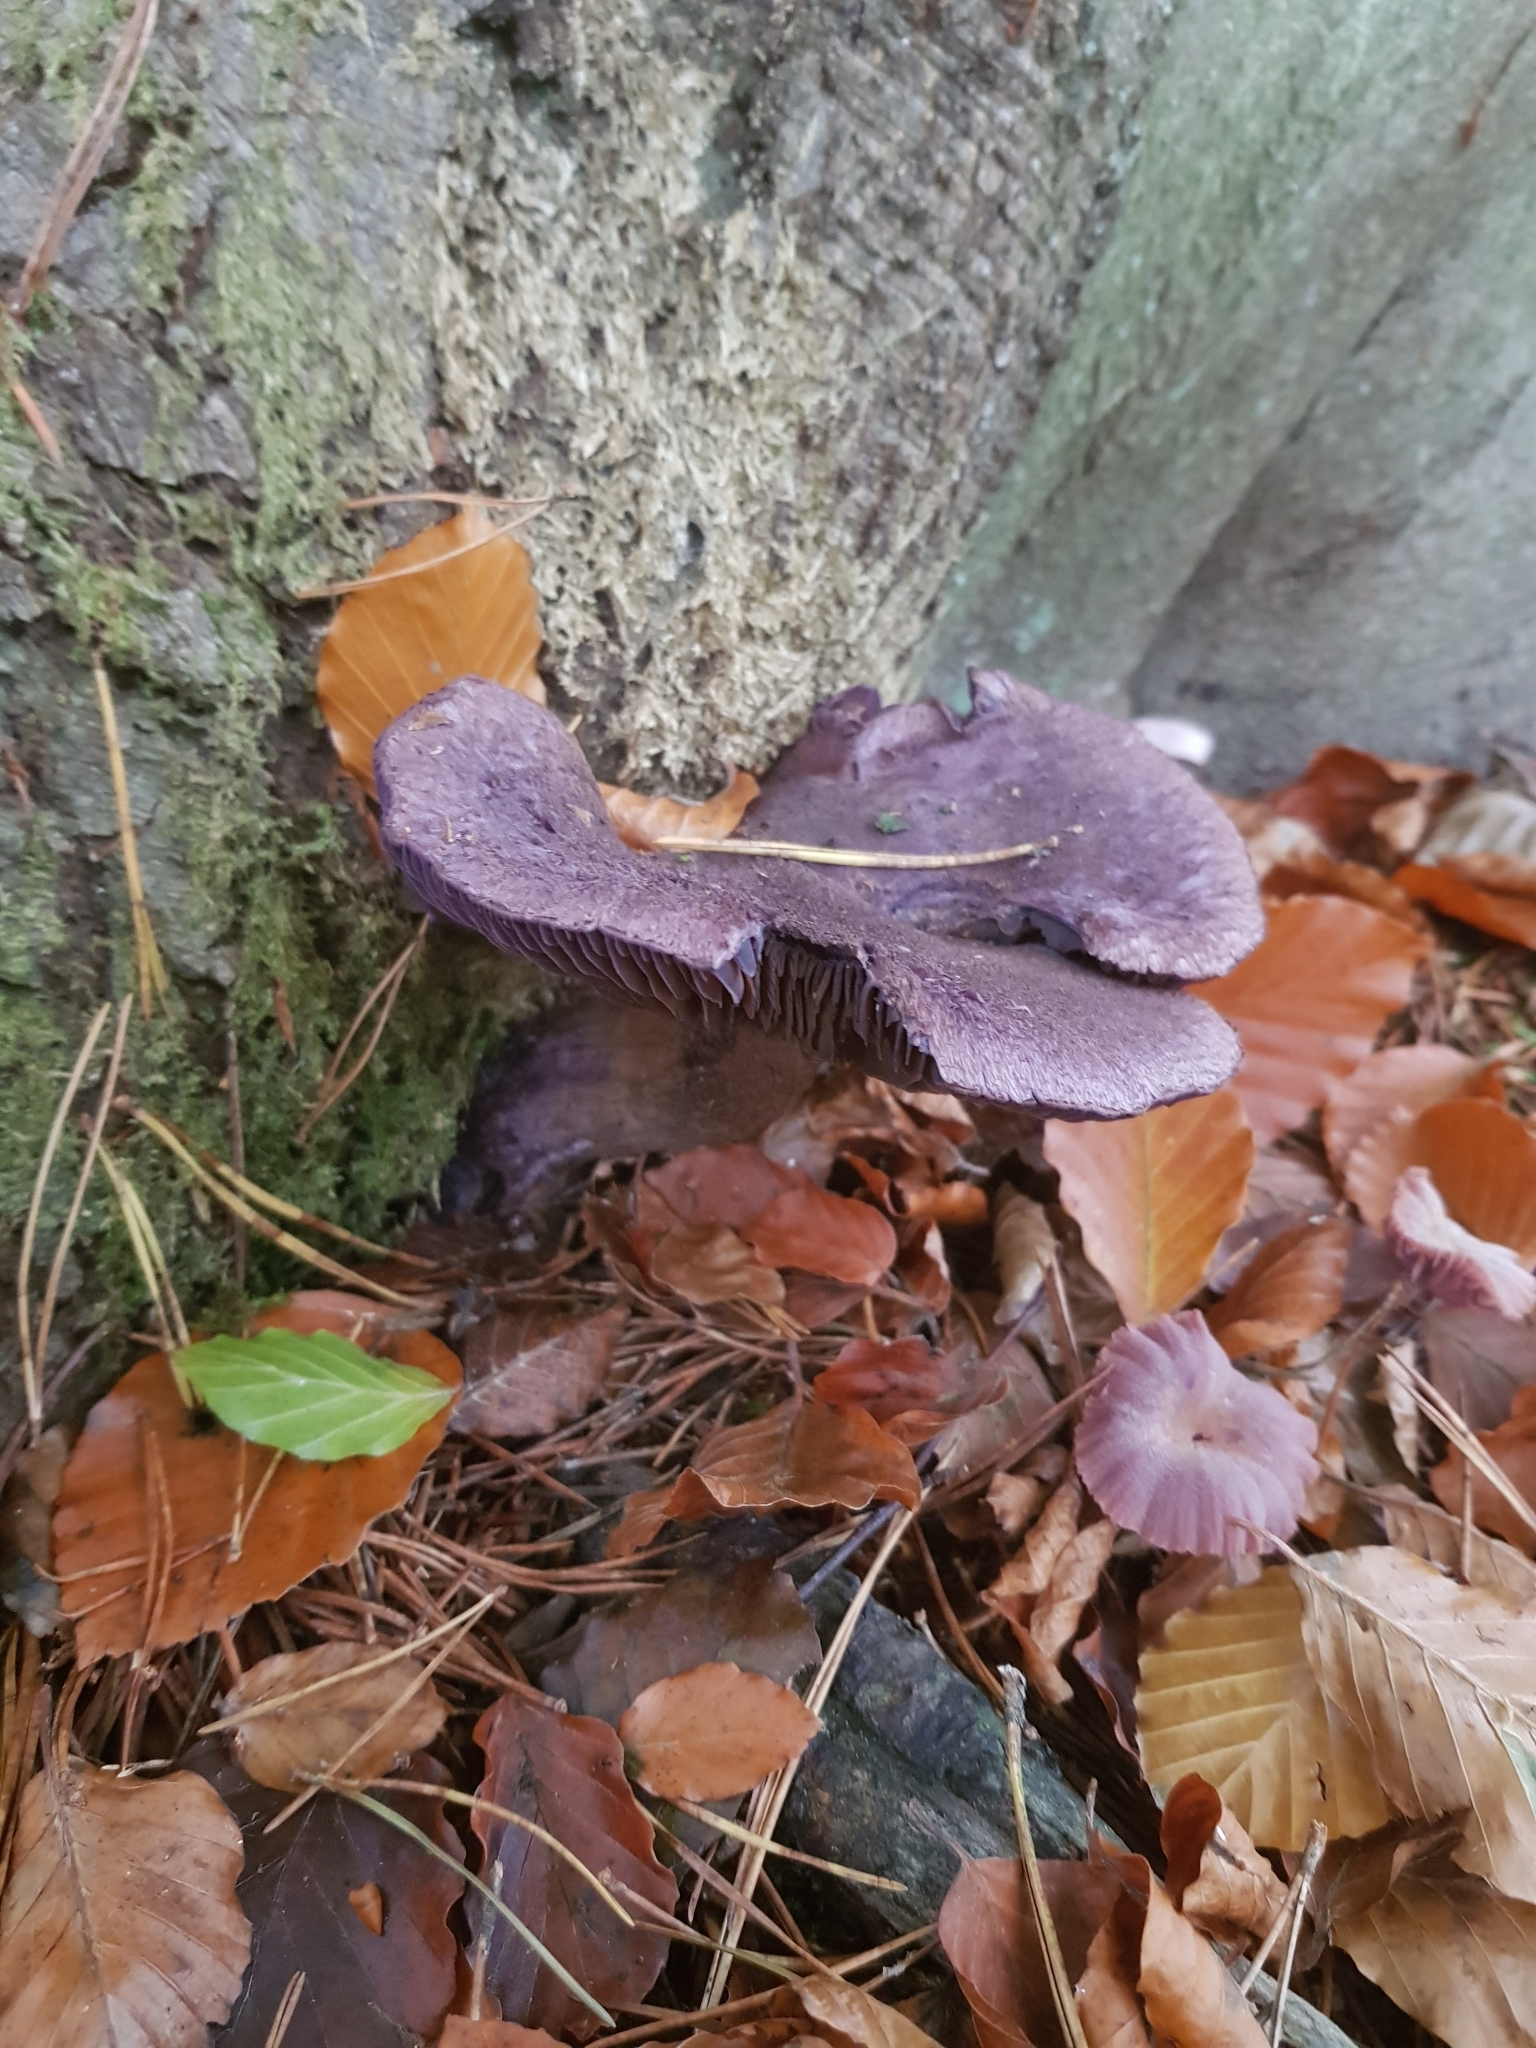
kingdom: Fungi
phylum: Basidiomycota
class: Agaricomycetes
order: Agaricales
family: Cortinariaceae
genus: Cortinarius
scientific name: Cortinarius violaceus
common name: Violet webcap
